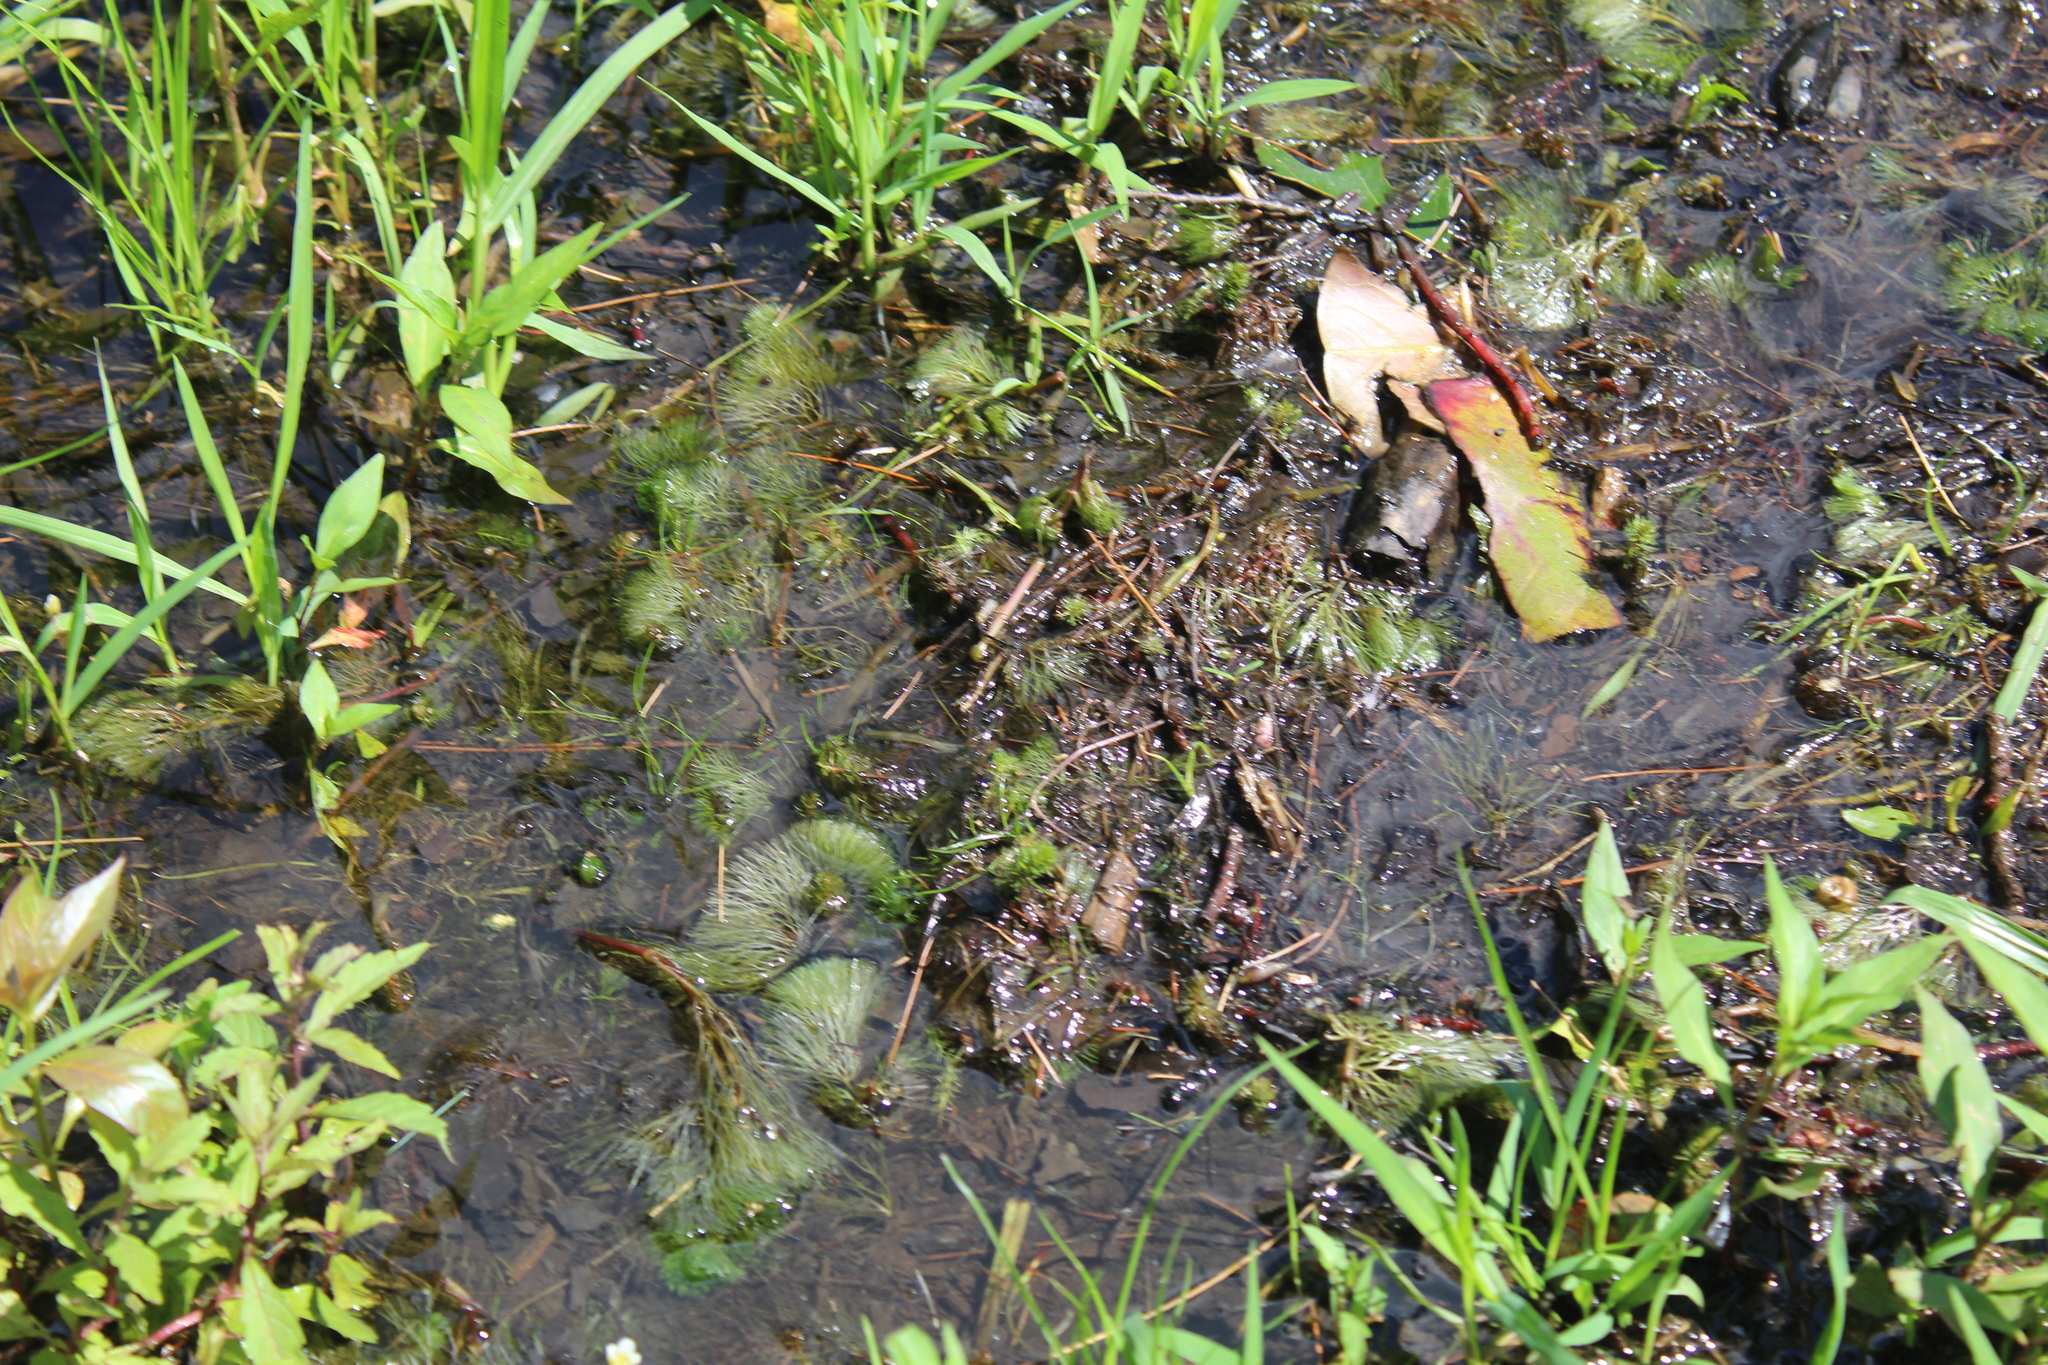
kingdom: Plantae
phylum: Tracheophyta
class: Magnoliopsida
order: Nymphaeales
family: Cabombaceae
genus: Cabomba
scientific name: Cabomba caroliniana
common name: Fanwort
